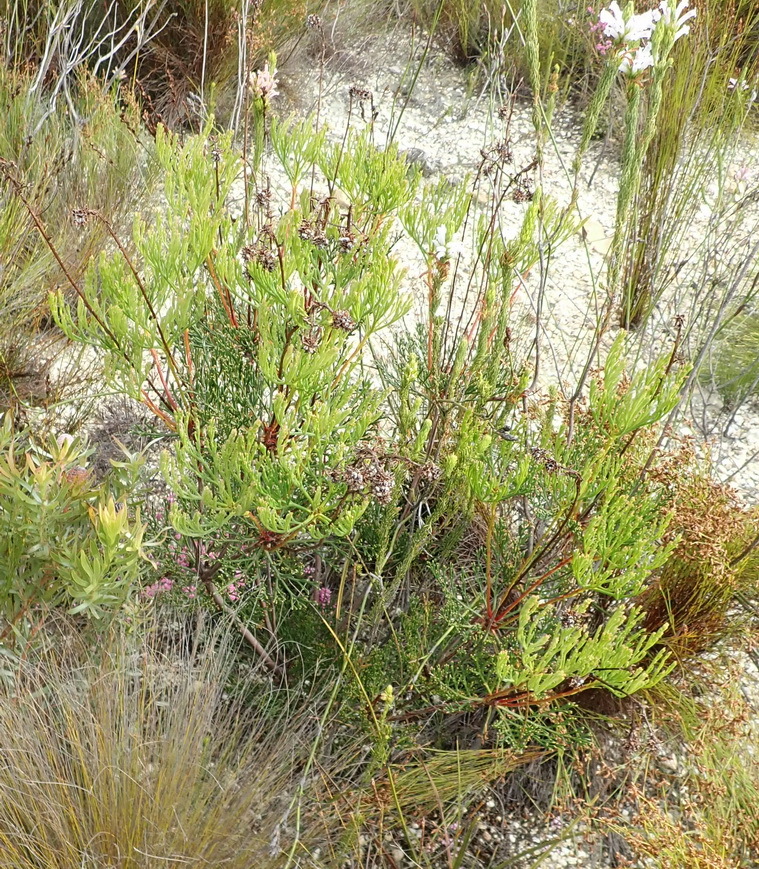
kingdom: Plantae
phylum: Tracheophyta
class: Magnoliopsida
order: Proteales
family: Proteaceae
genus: Paranomus
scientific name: Paranomus abrotanifolius
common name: Bredasdorp sceptre
